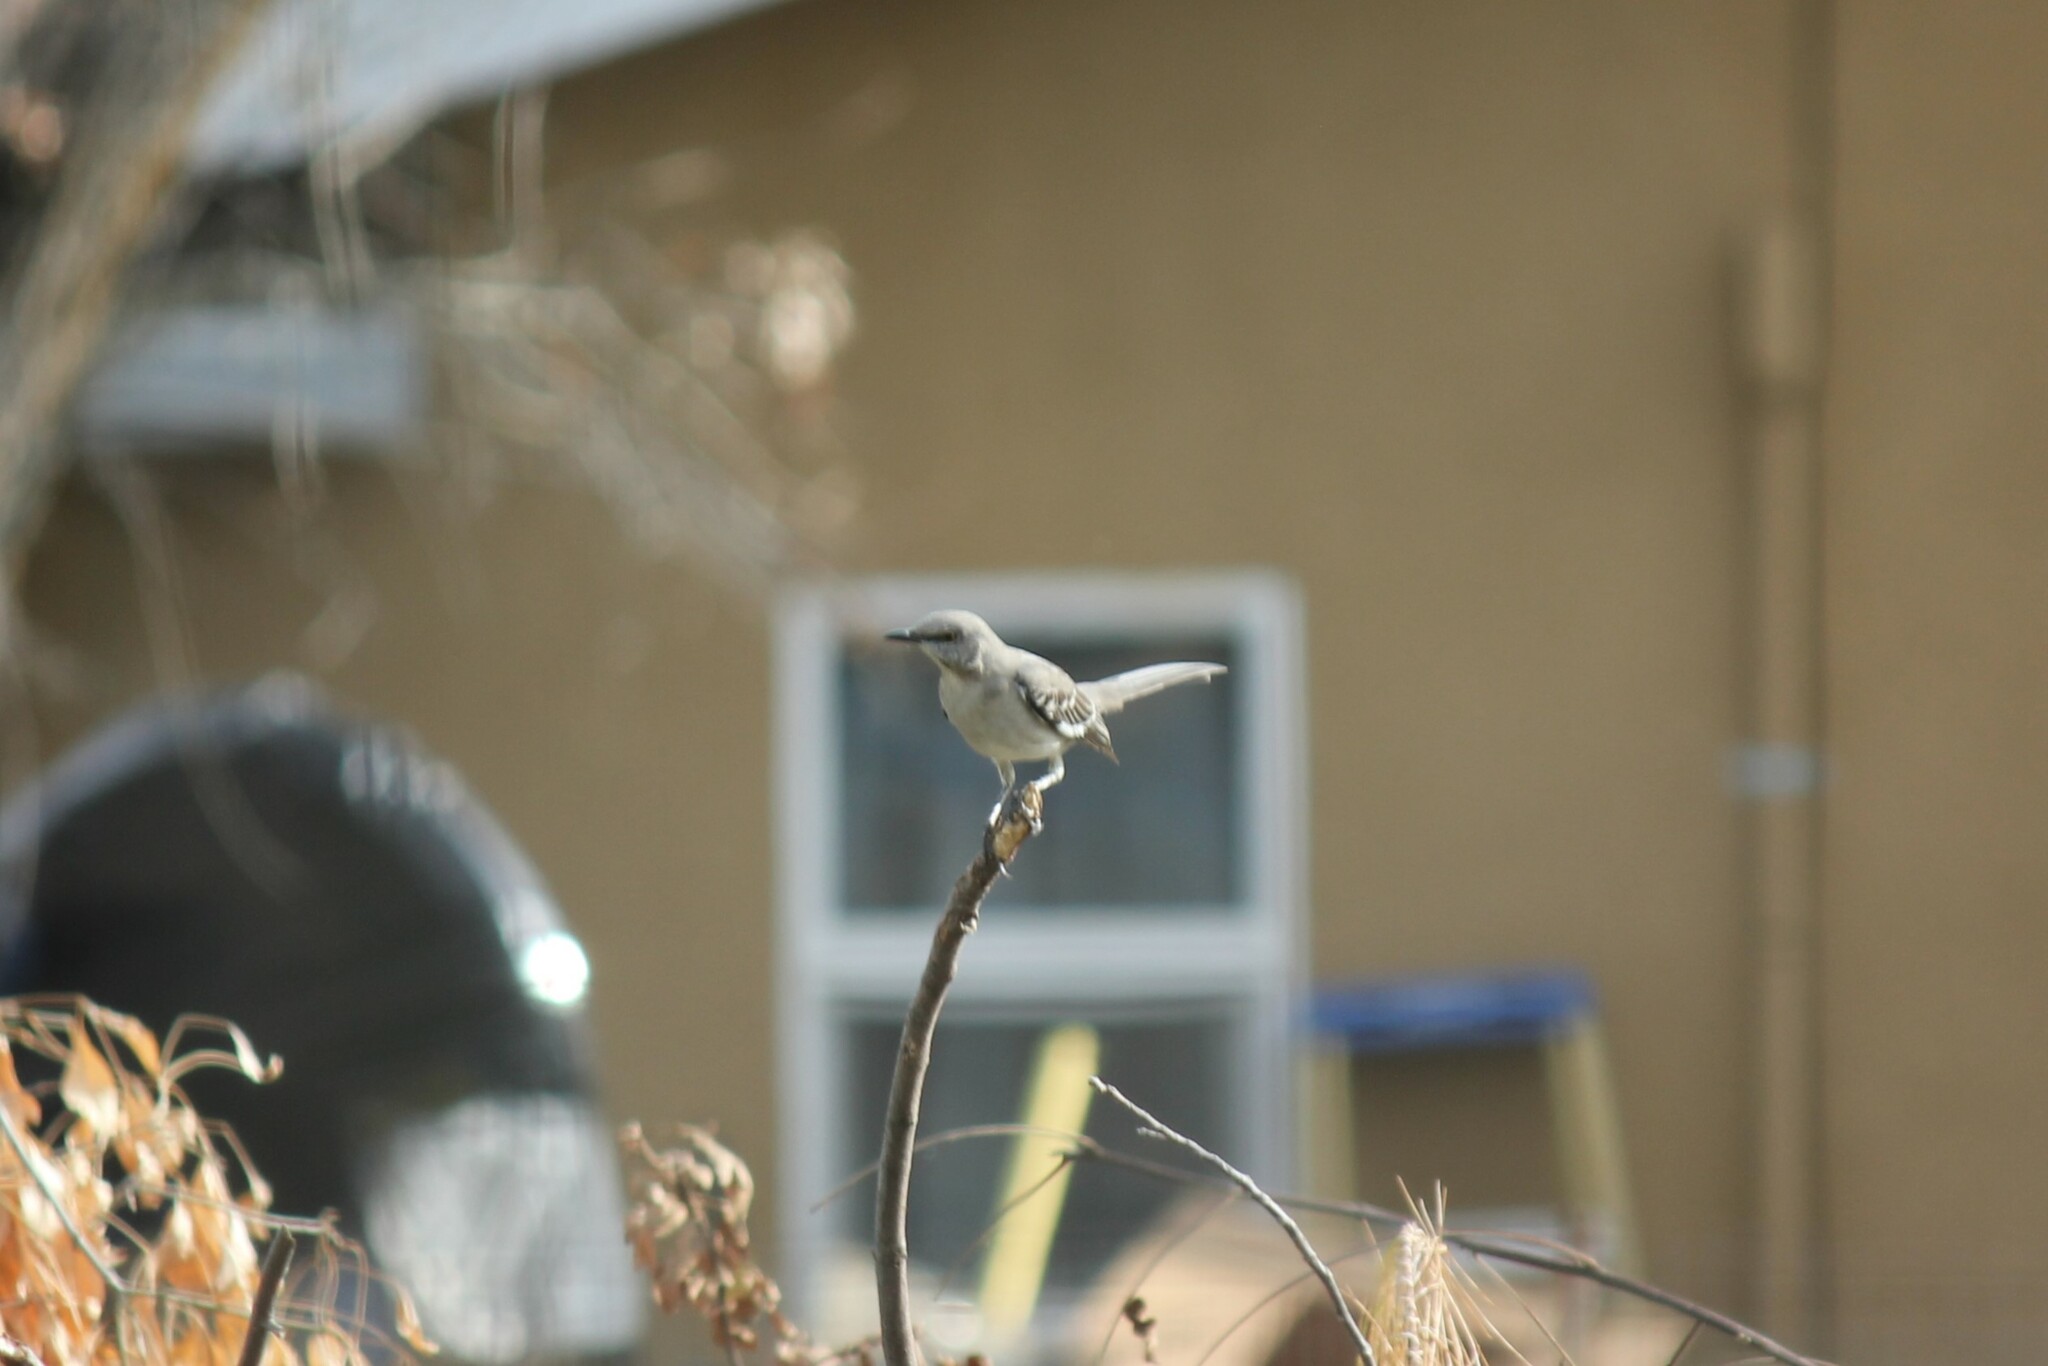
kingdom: Animalia
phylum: Chordata
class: Aves
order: Passeriformes
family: Mimidae
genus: Mimus
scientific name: Mimus polyglottos
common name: Northern mockingbird
